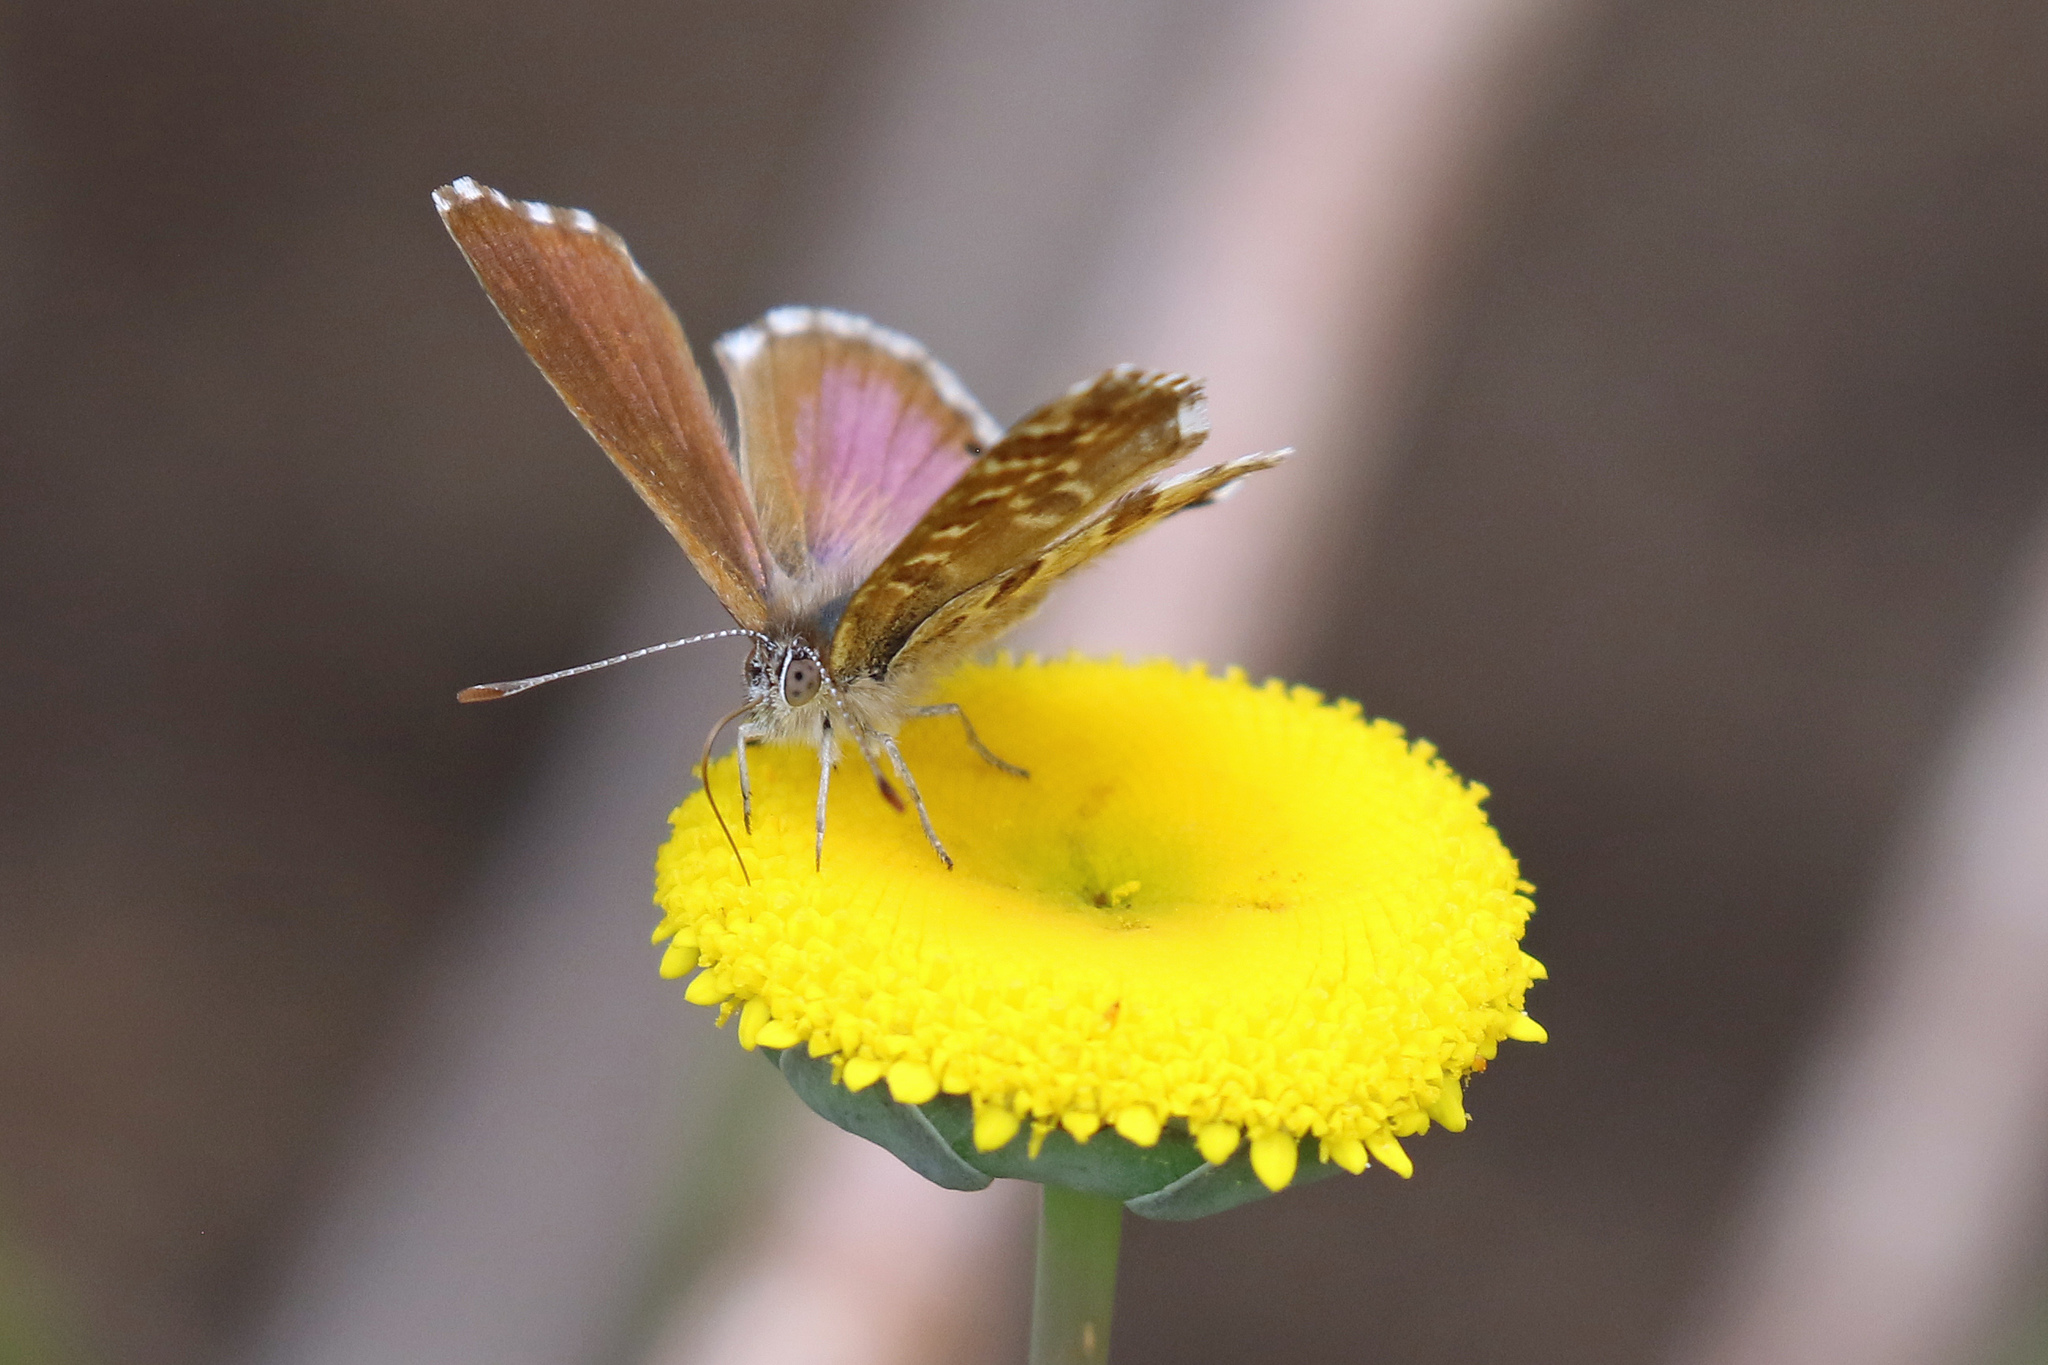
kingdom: Animalia
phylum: Arthropoda
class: Insecta
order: Lepidoptera
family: Lycaenidae
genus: Cacyreus
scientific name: Cacyreus fracta
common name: Water bronze
